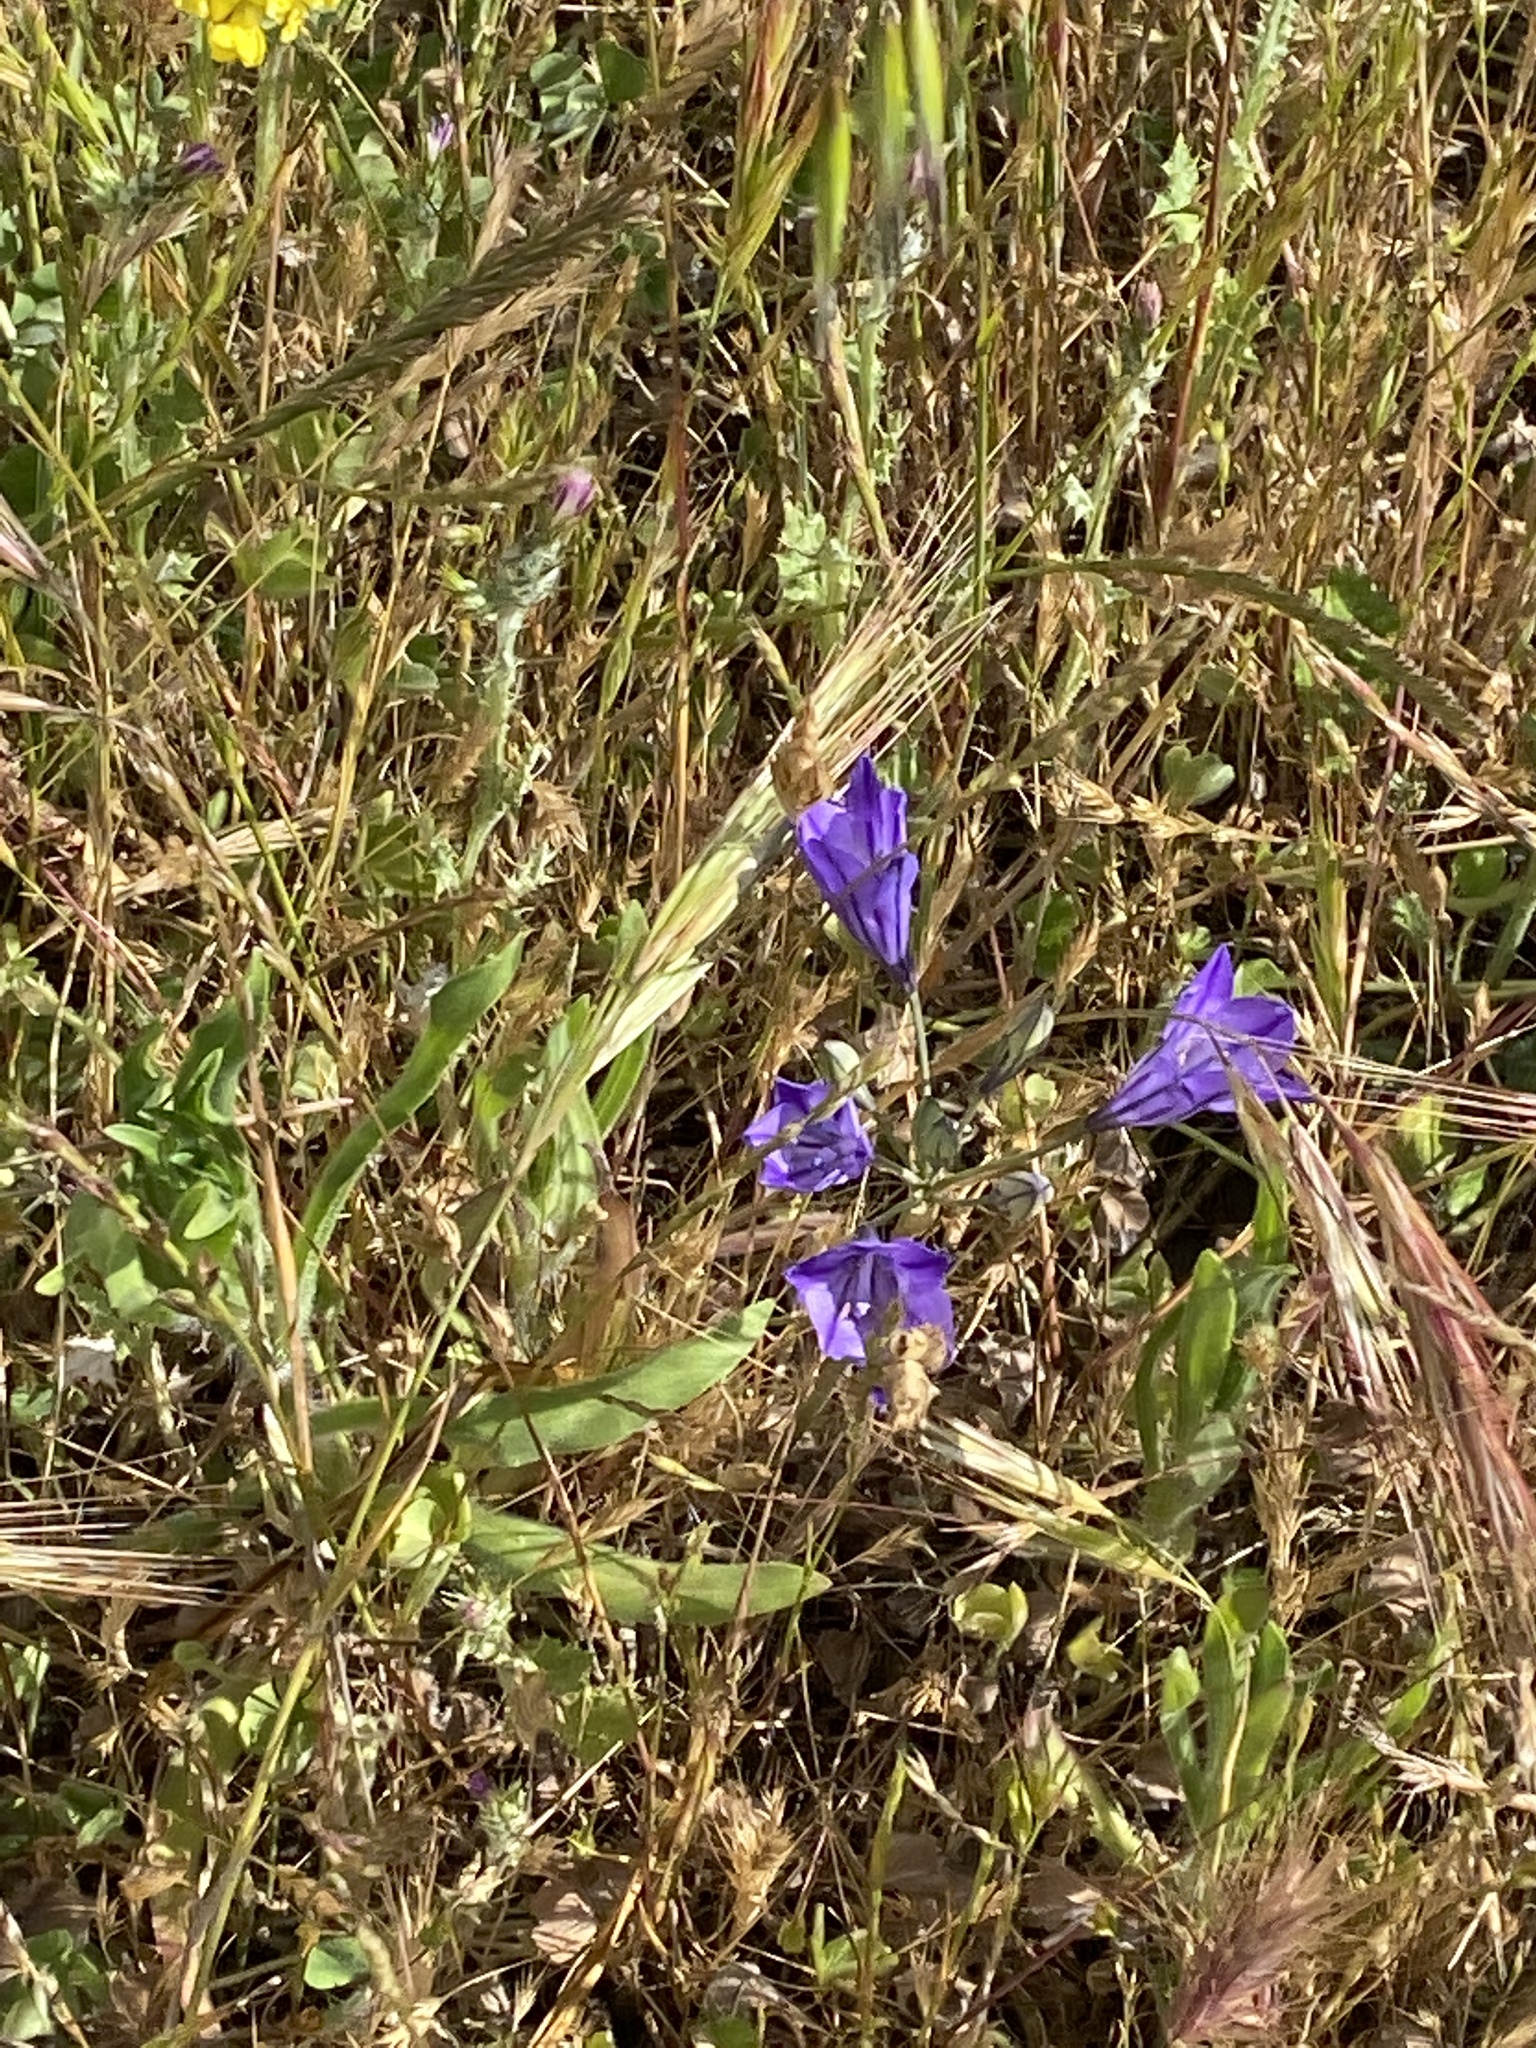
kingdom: Plantae
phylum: Tracheophyta
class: Liliopsida
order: Asparagales
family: Asparagaceae
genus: Triteleia
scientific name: Triteleia laxa
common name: Triplet-lily
